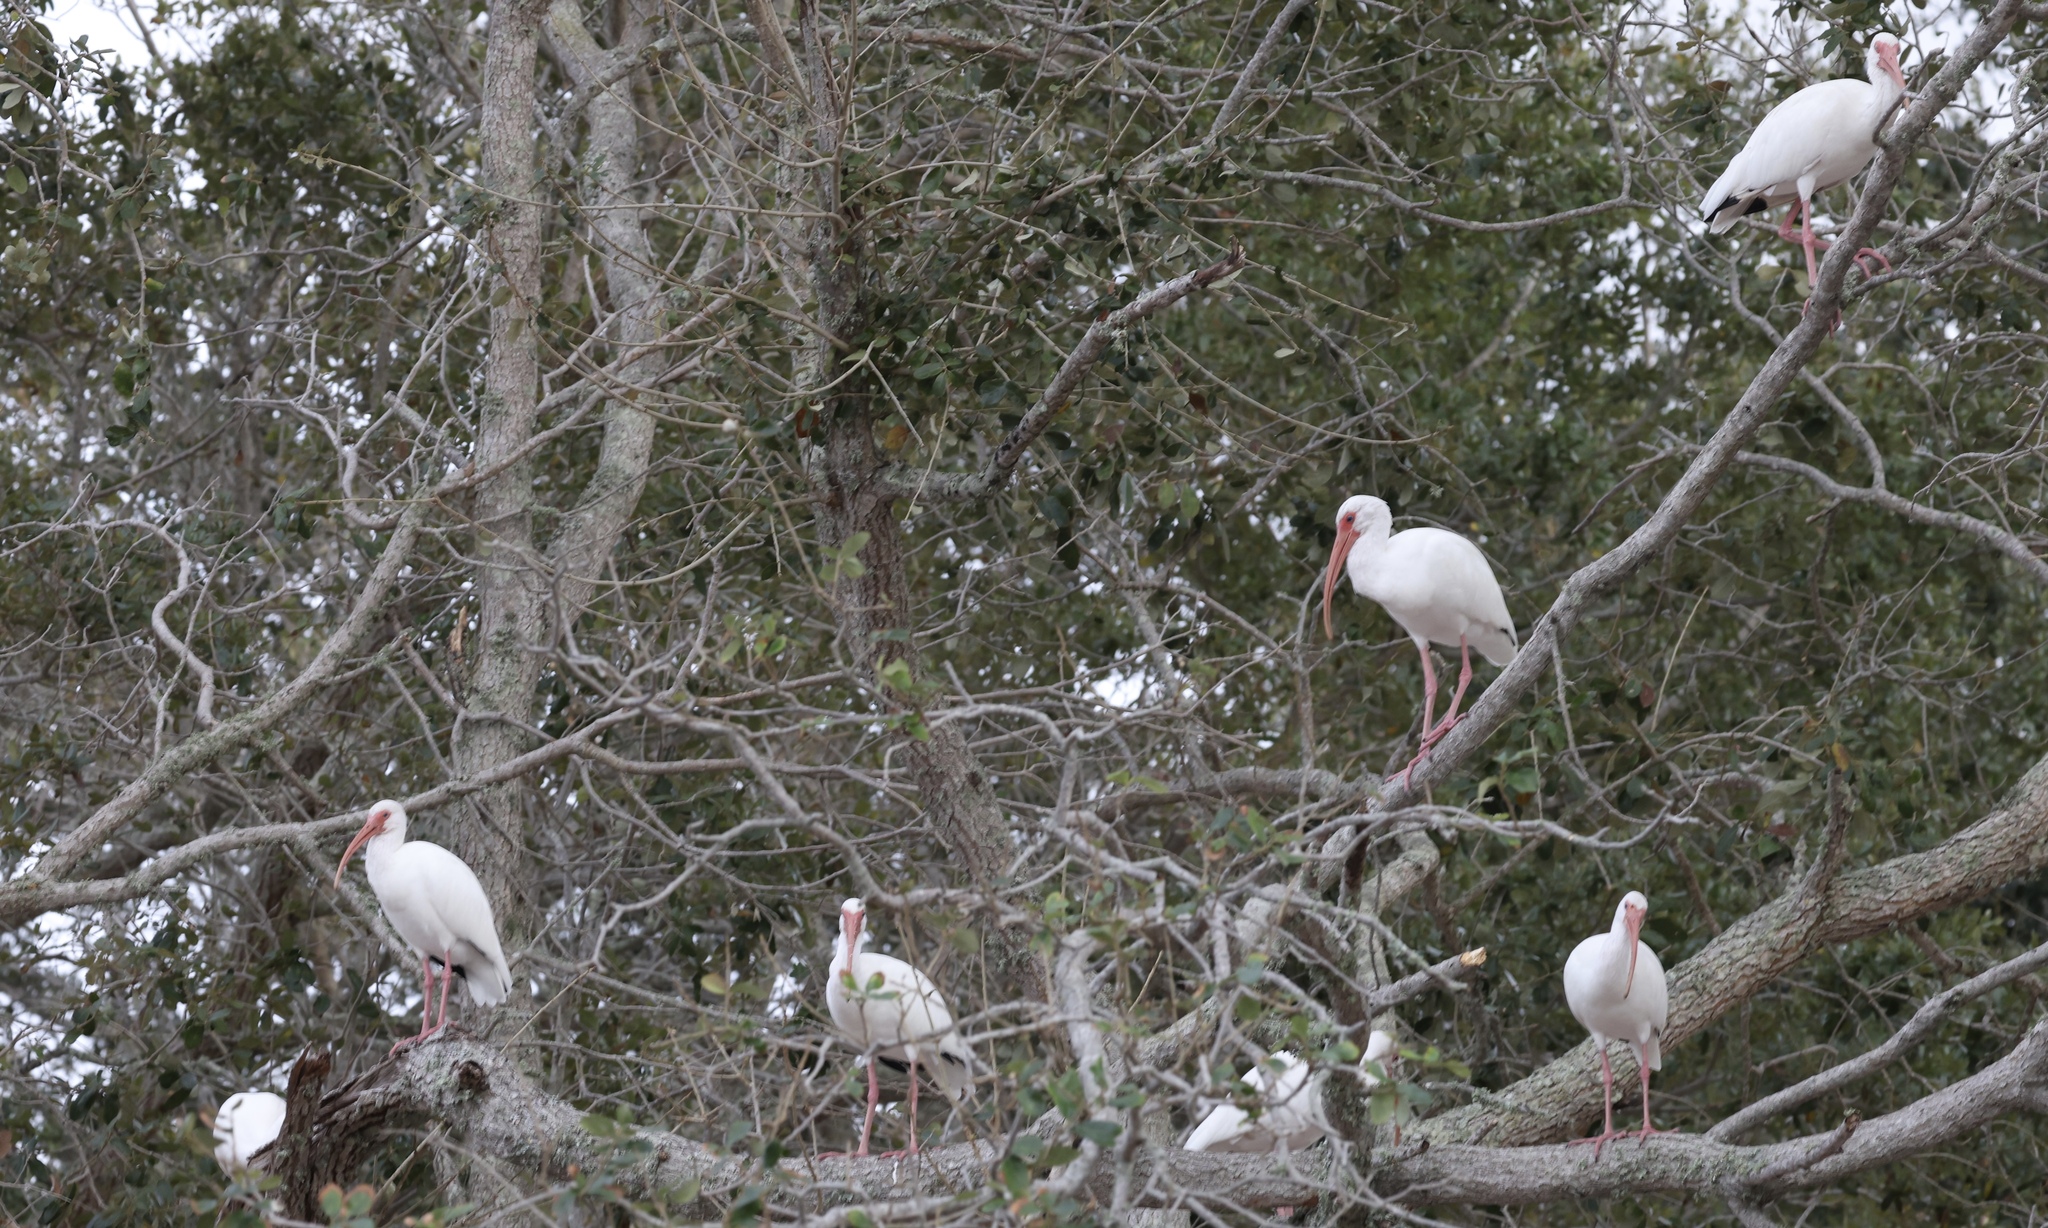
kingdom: Animalia
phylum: Chordata
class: Aves
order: Pelecaniformes
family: Threskiornithidae
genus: Eudocimus
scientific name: Eudocimus albus
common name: White ibis
